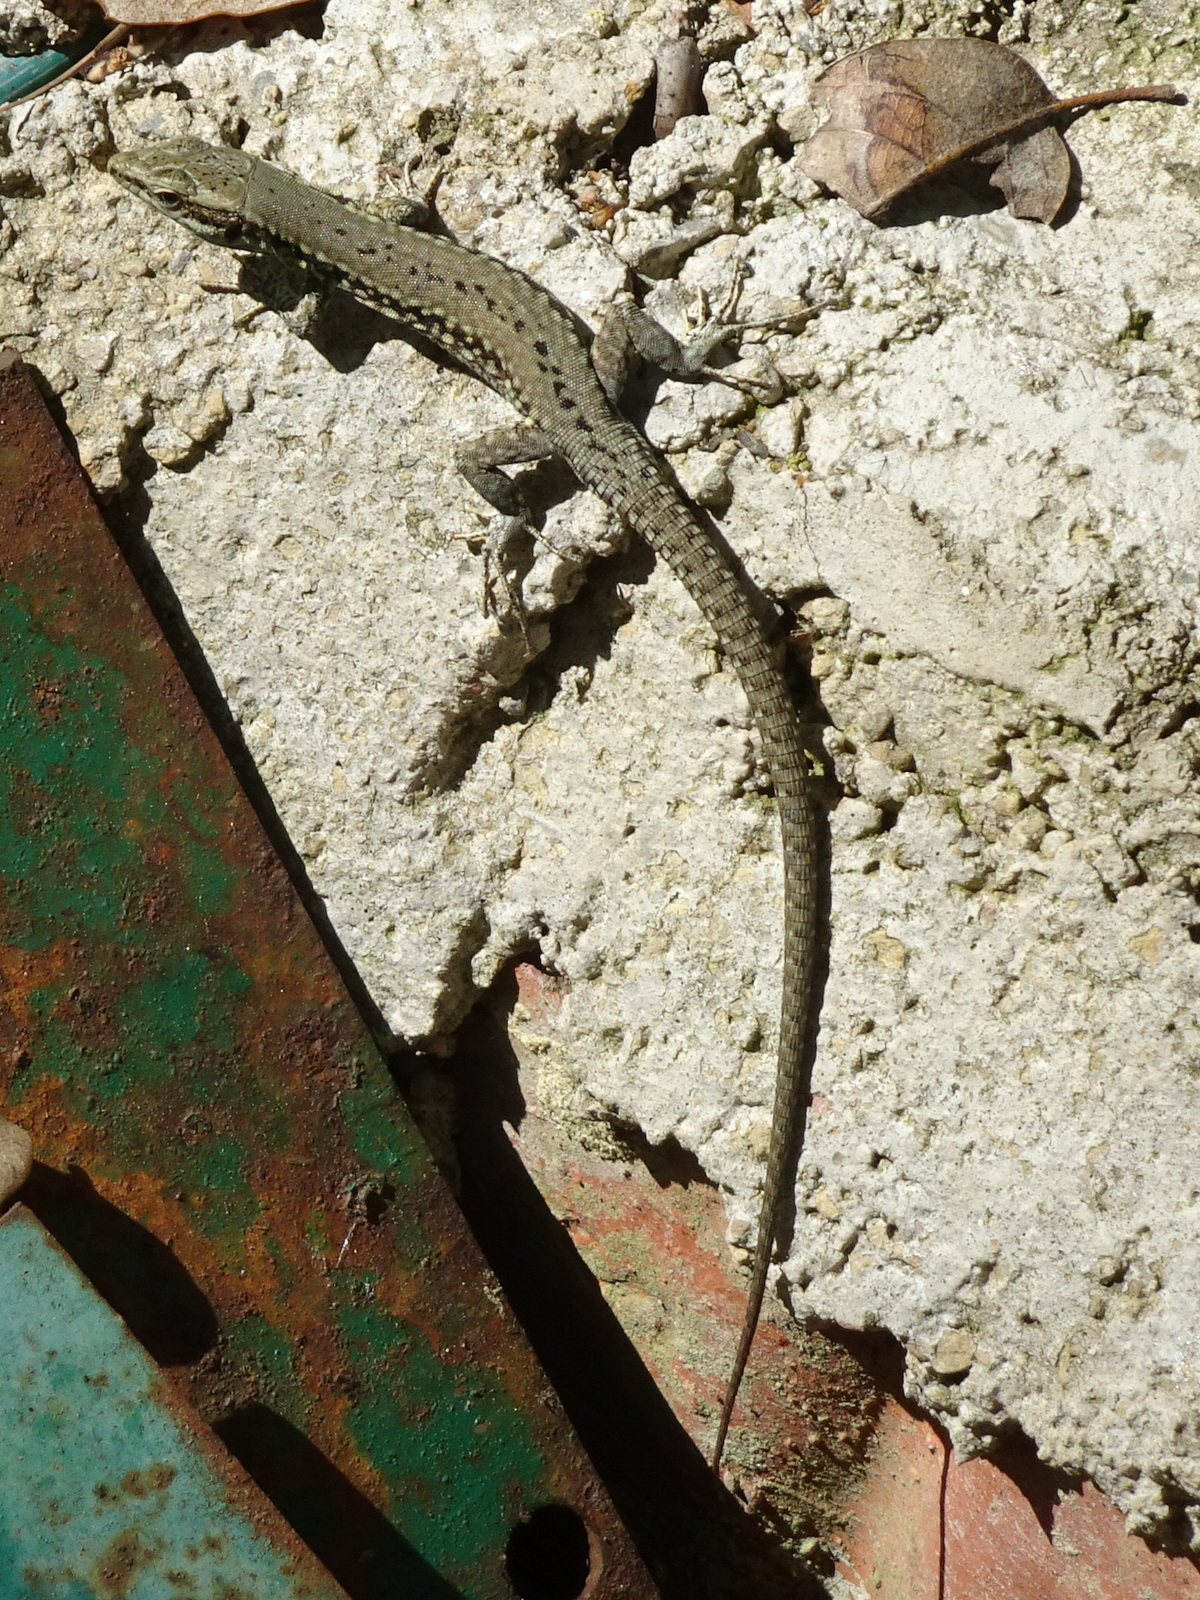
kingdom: Animalia
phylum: Chordata
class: Squamata
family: Lacertidae
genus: Podarcis
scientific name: Podarcis muralis
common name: Common wall lizard
